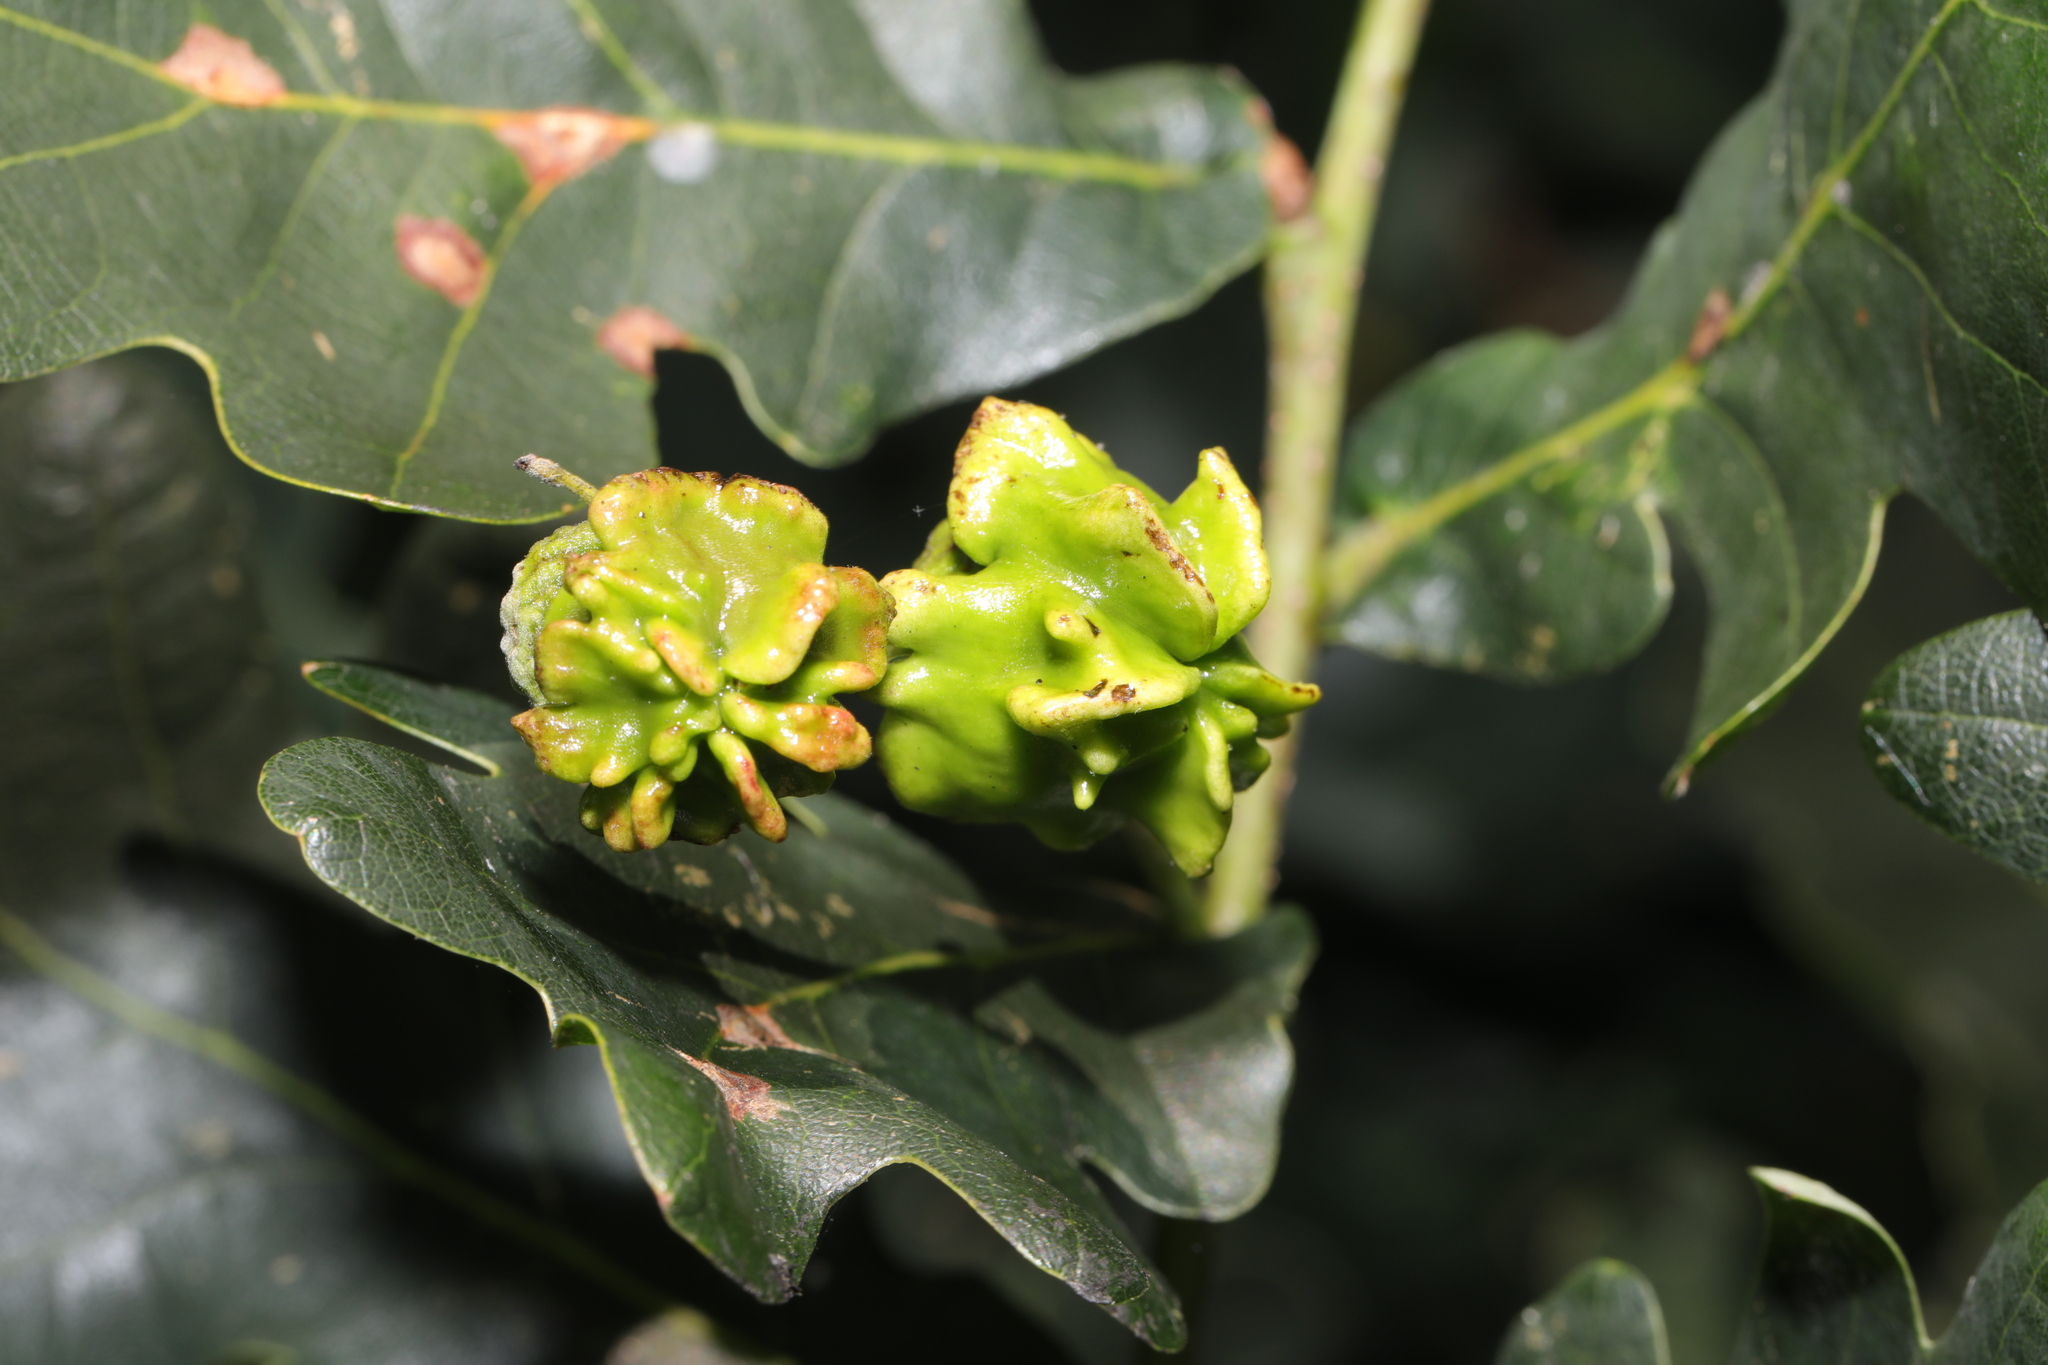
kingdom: Animalia
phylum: Arthropoda
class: Insecta
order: Hymenoptera
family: Cynipidae
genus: Andricus
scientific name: Andricus quercuscalicis
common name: Knopper gall
